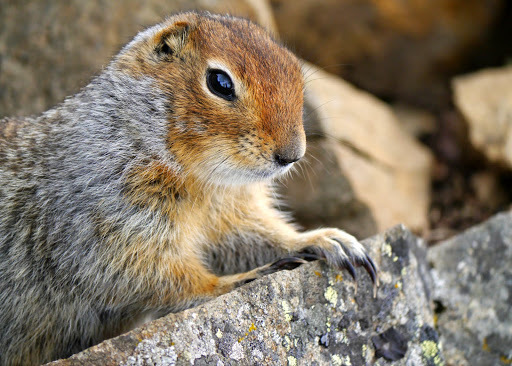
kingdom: Animalia
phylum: Chordata
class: Mammalia
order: Rodentia
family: Sciuridae
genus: Urocitellus
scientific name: Urocitellus parryii
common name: Arctic ground squirrel
